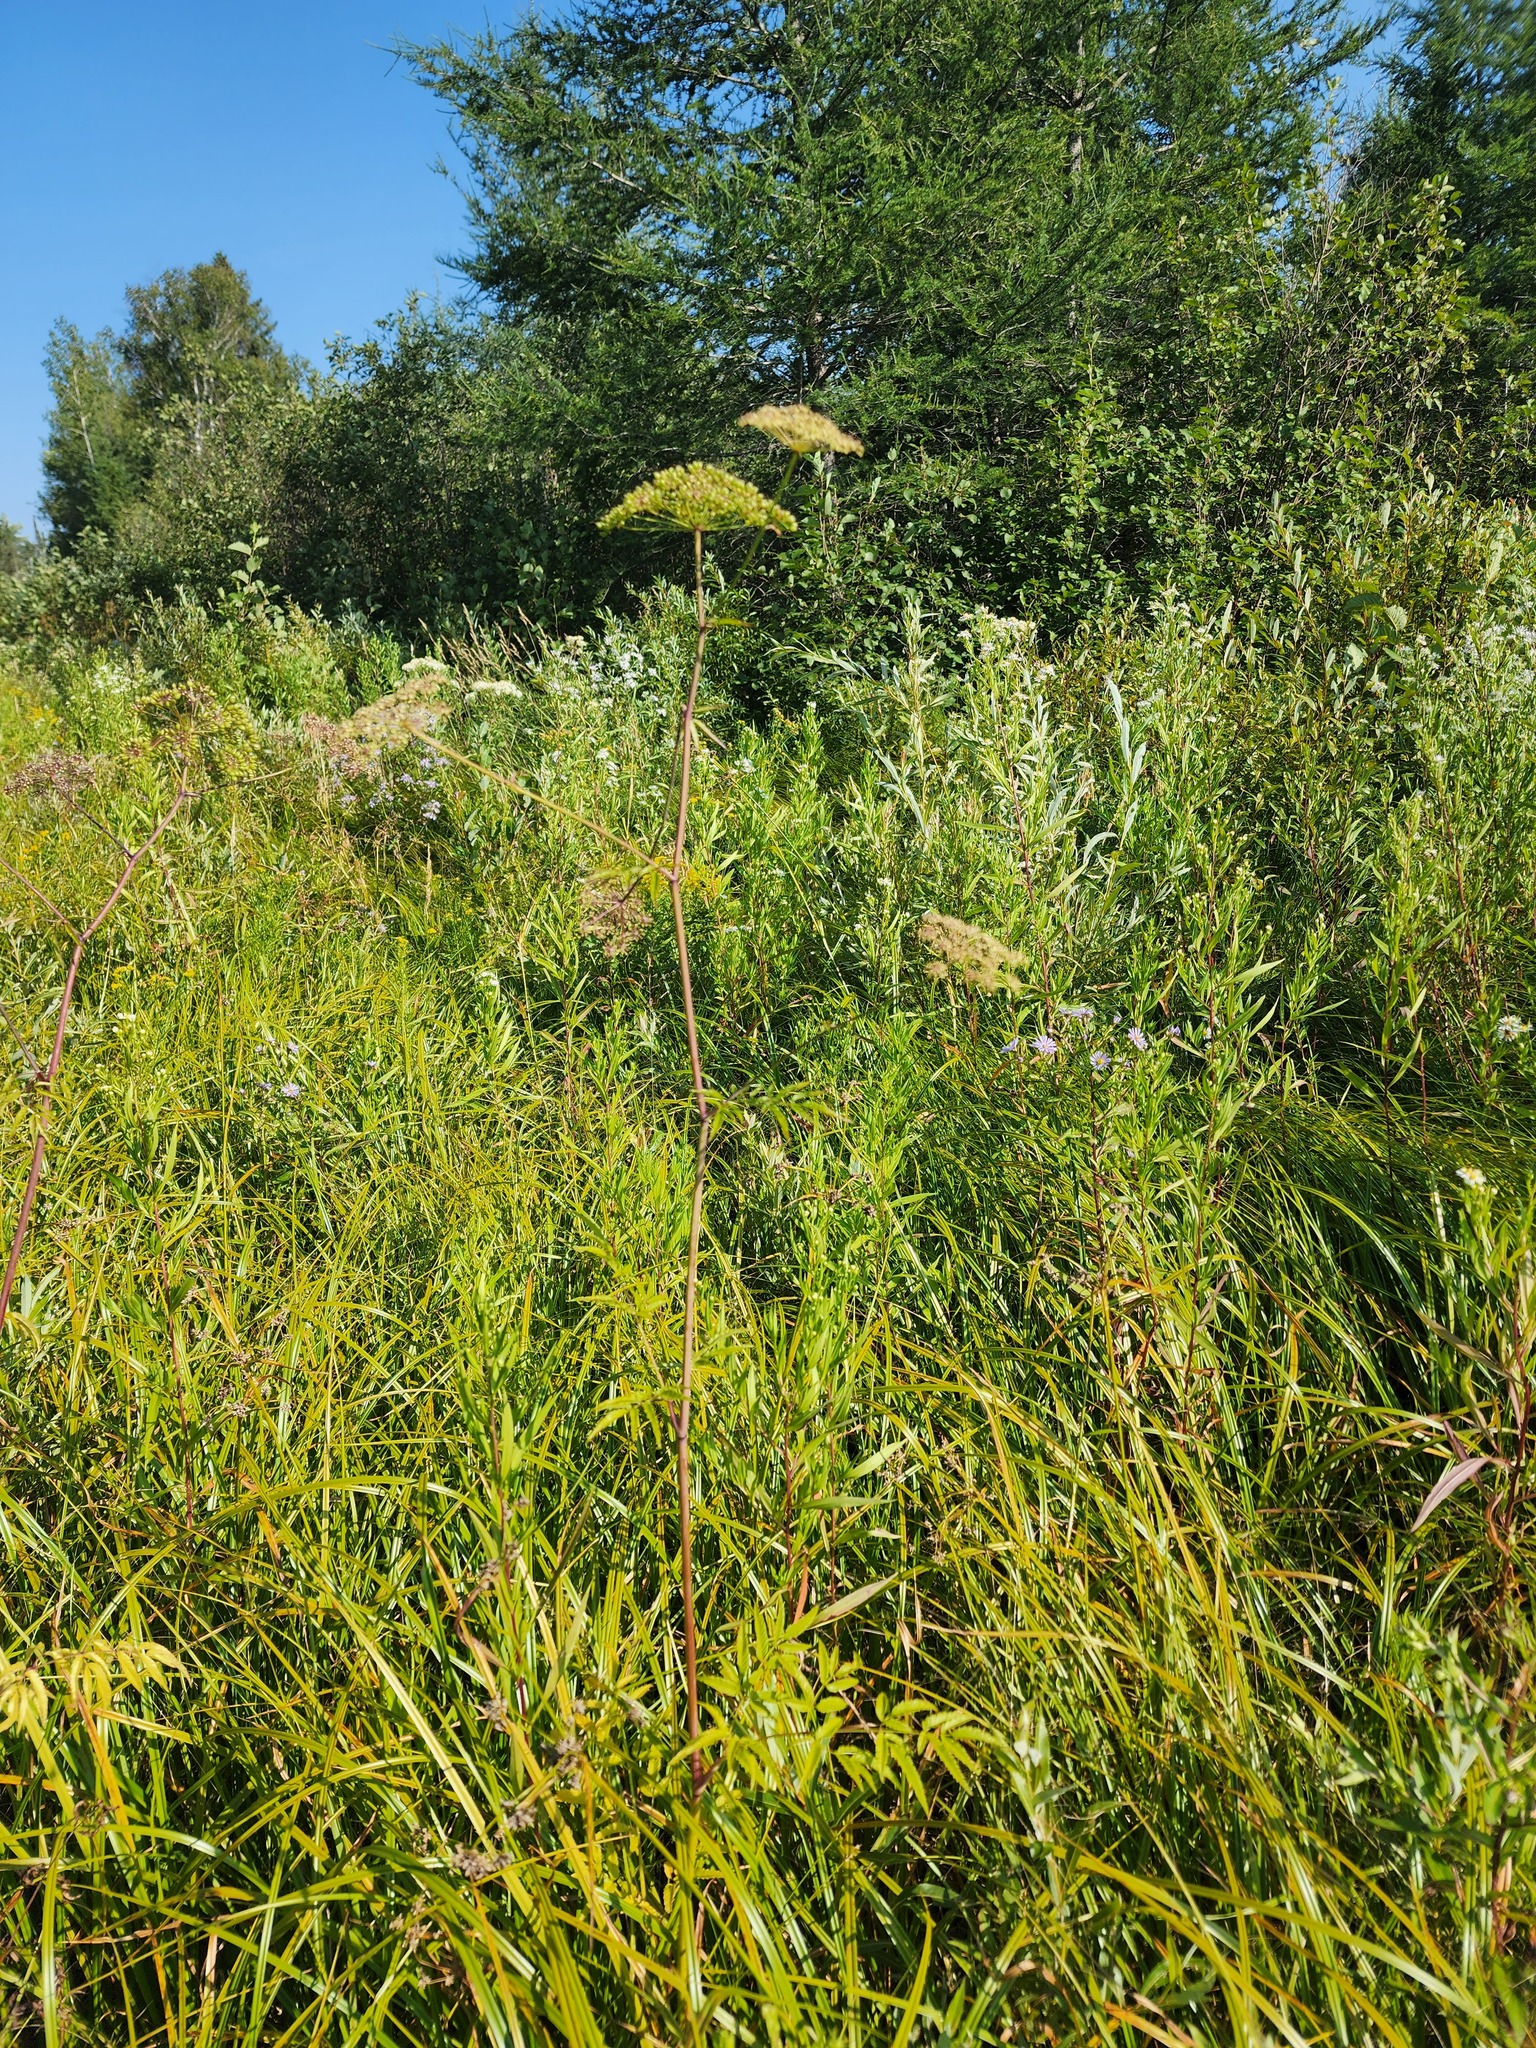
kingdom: Plantae
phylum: Tracheophyta
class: Magnoliopsida
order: Apiales
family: Apiaceae
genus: Cicuta
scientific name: Cicuta maculata
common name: Spotted cowbane
